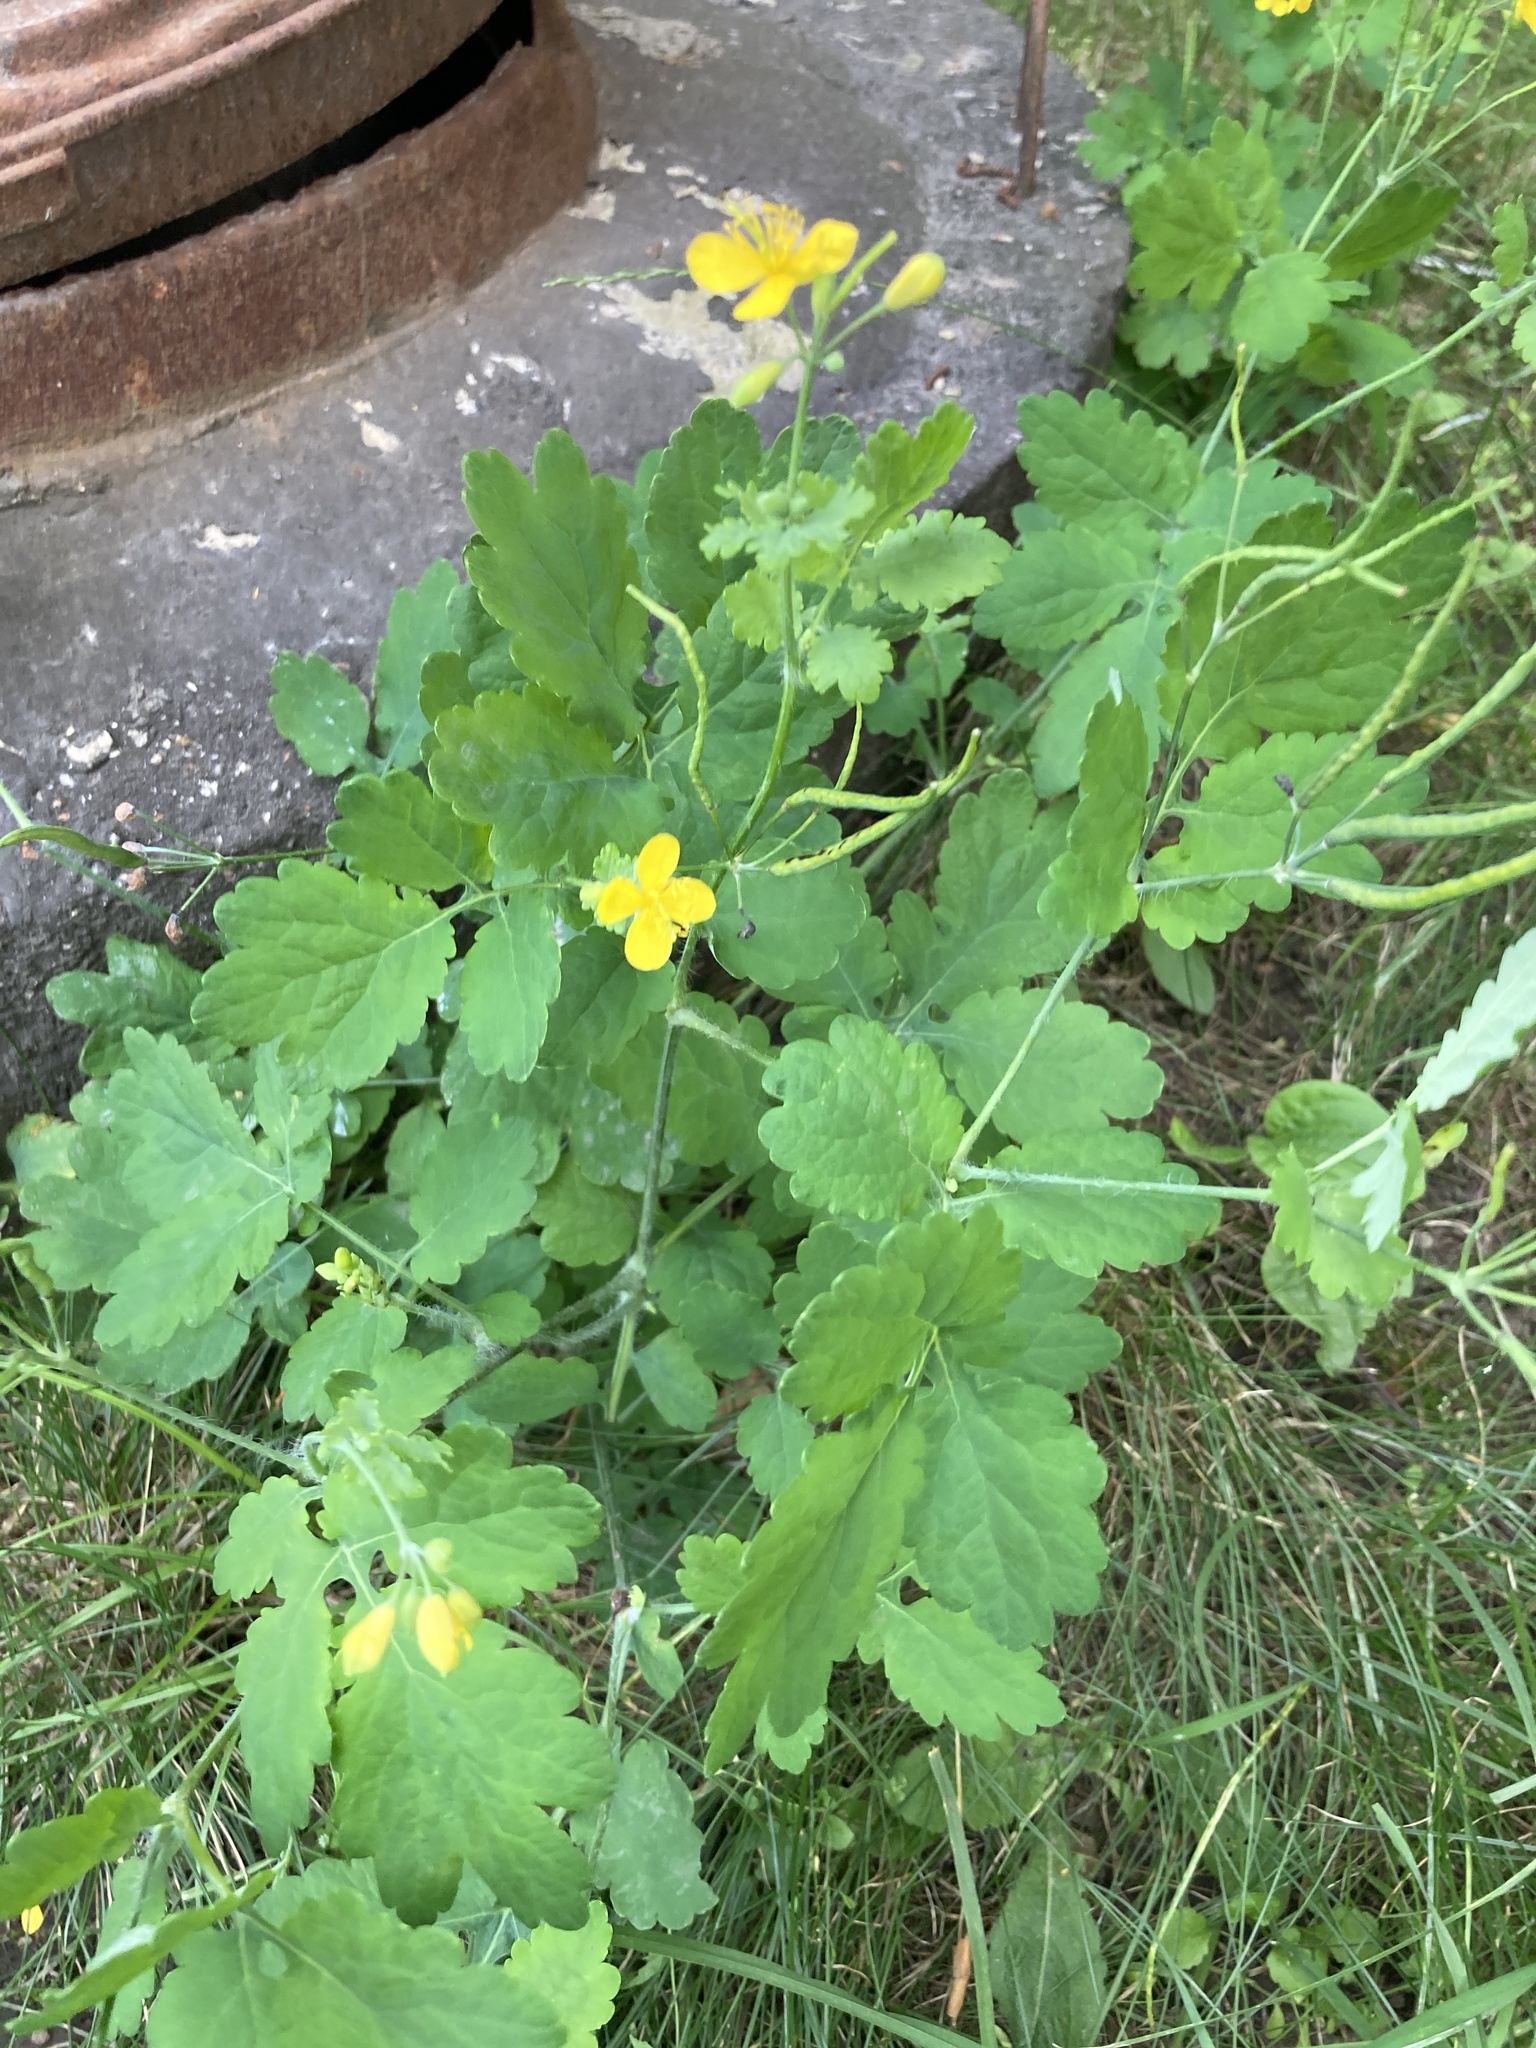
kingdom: Plantae
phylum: Tracheophyta
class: Magnoliopsida
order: Ranunculales
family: Papaveraceae
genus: Chelidonium
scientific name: Chelidonium majus
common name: Greater celandine
